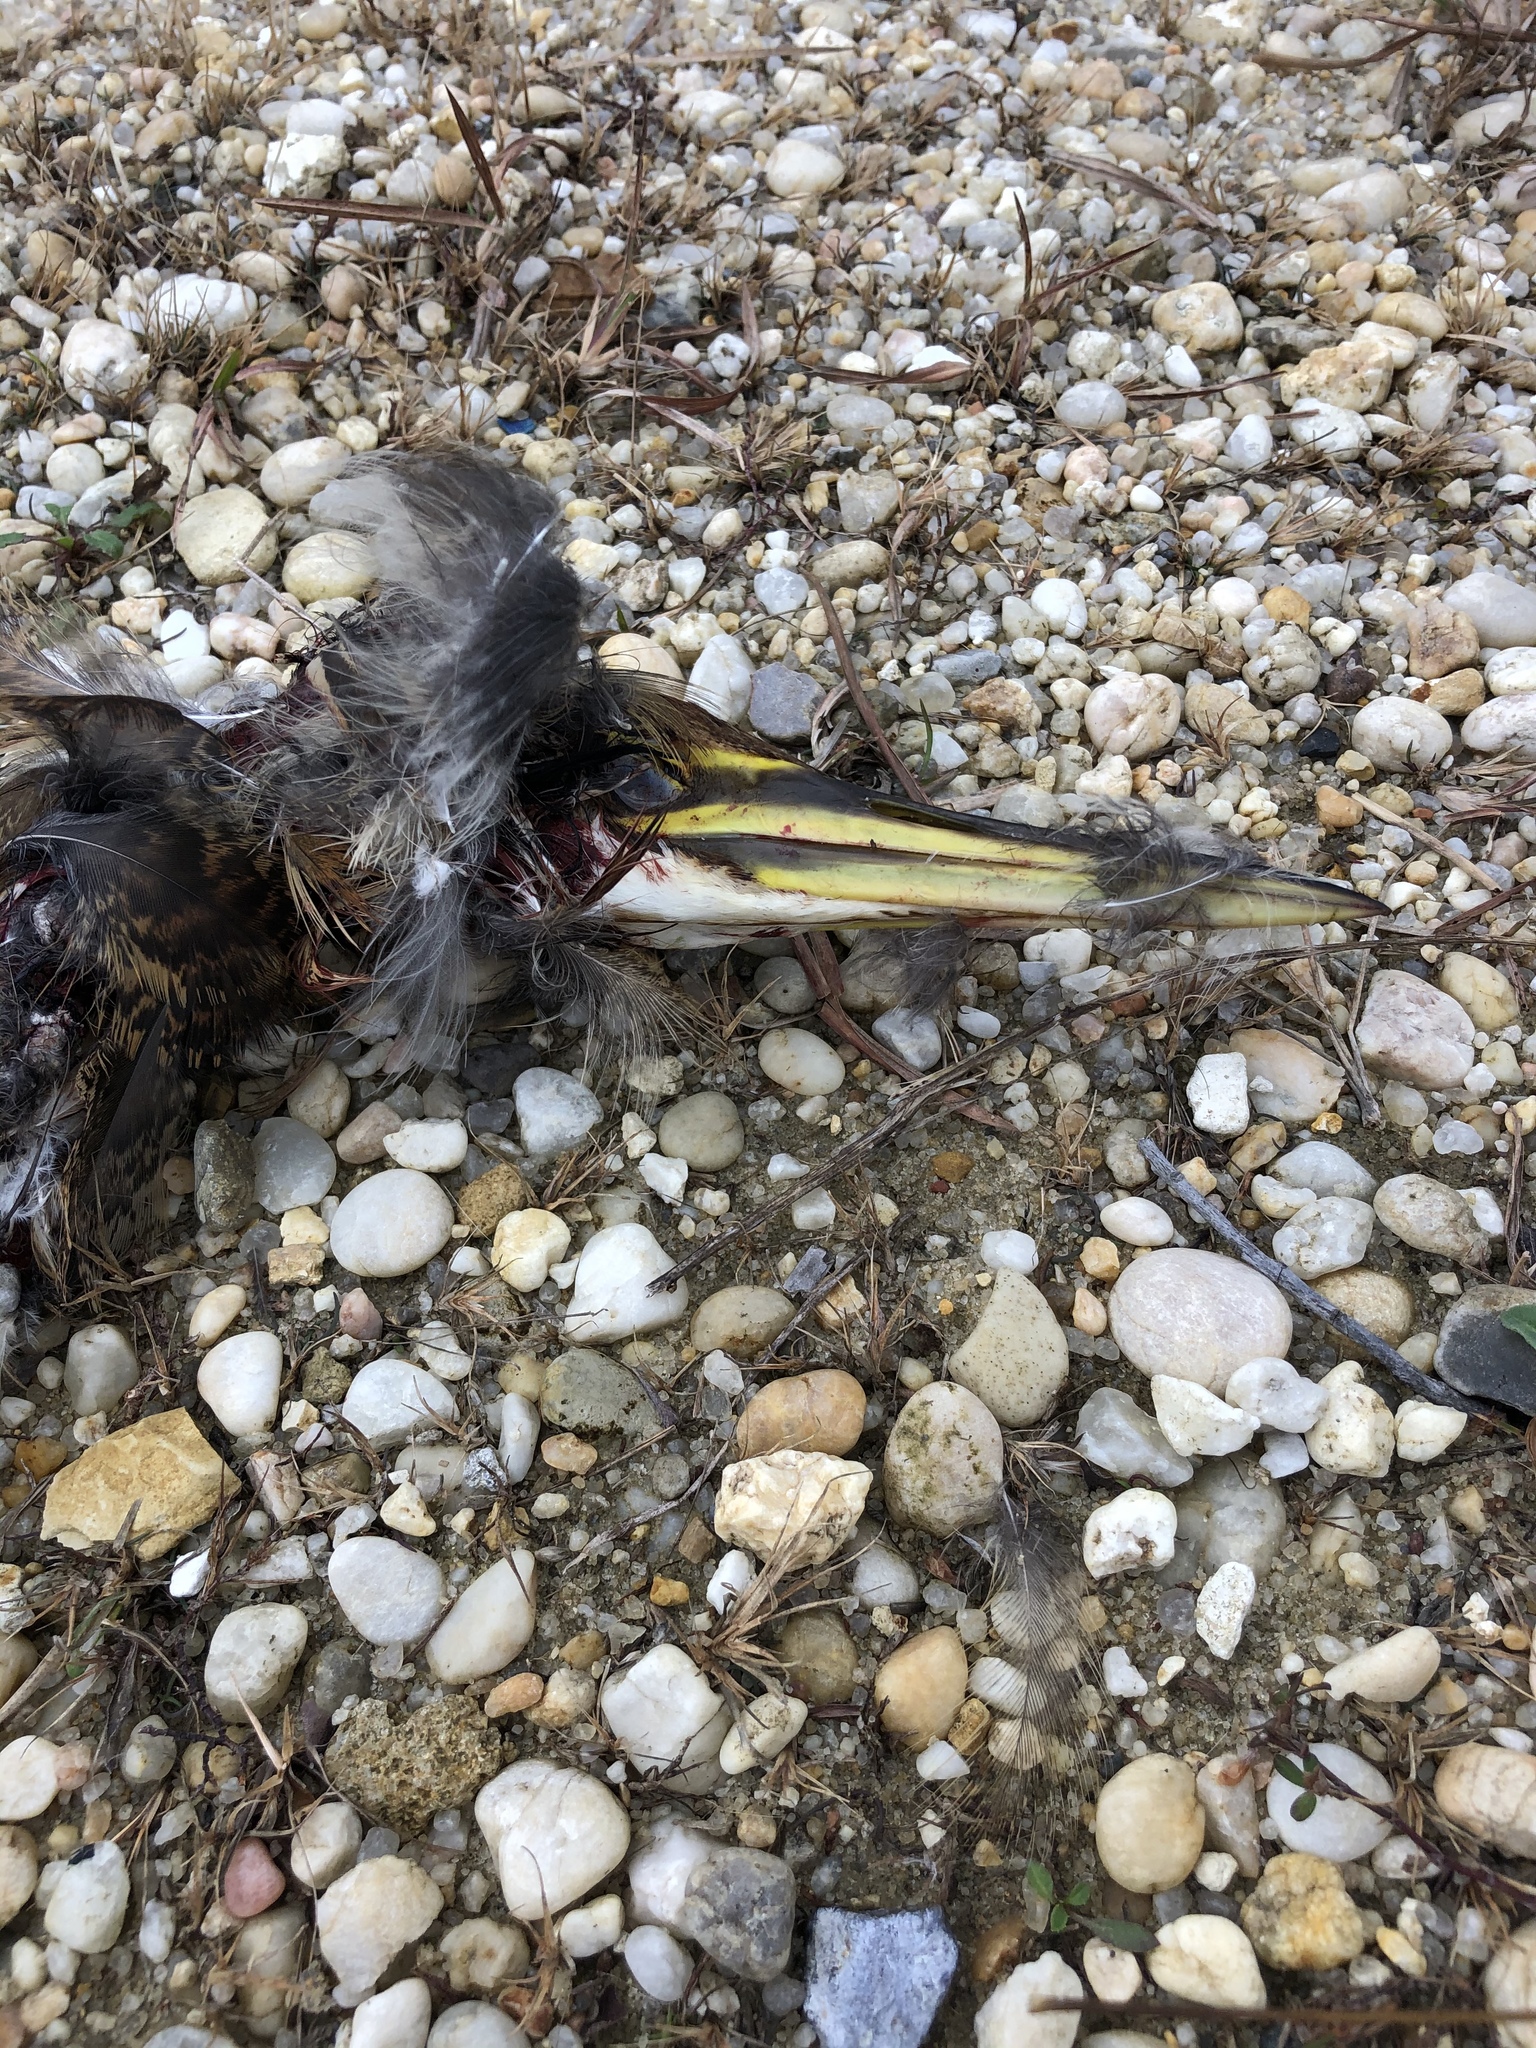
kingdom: Animalia
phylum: Chordata
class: Aves
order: Pelecaniformes
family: Ardeidae
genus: Botaurus
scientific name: Botaurus lentiginosus
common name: American bittern
